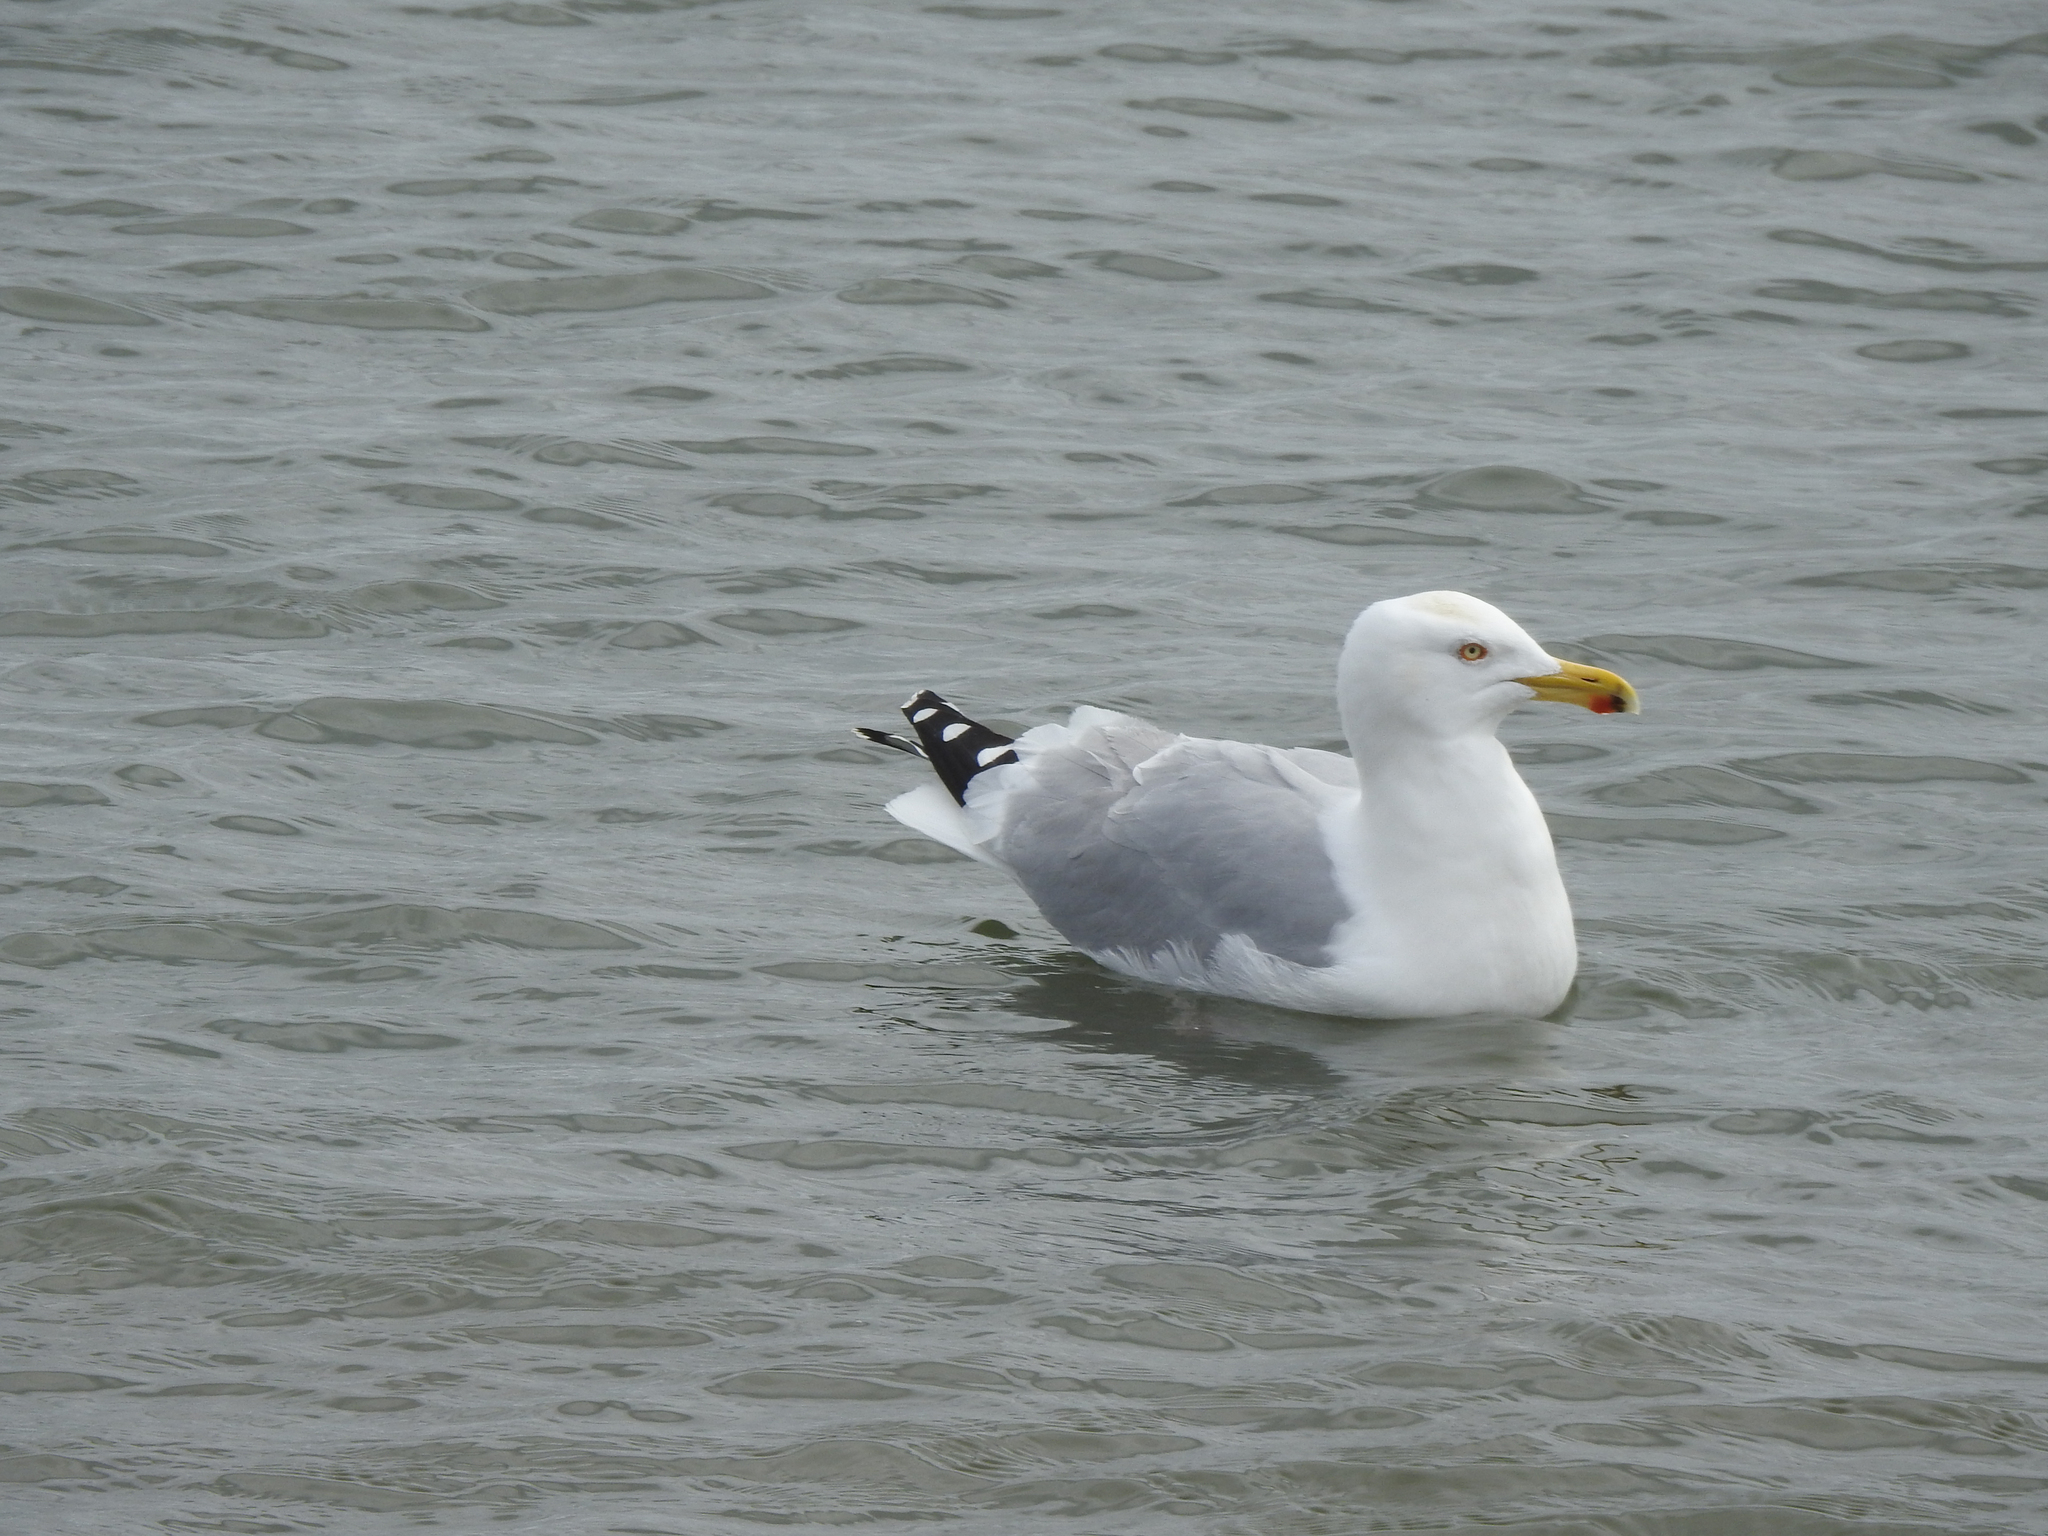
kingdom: Animalia
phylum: Chordata
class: Aves
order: Charadriiformes
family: Laridae
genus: Larus
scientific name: Larus argentatus
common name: Herring gull
